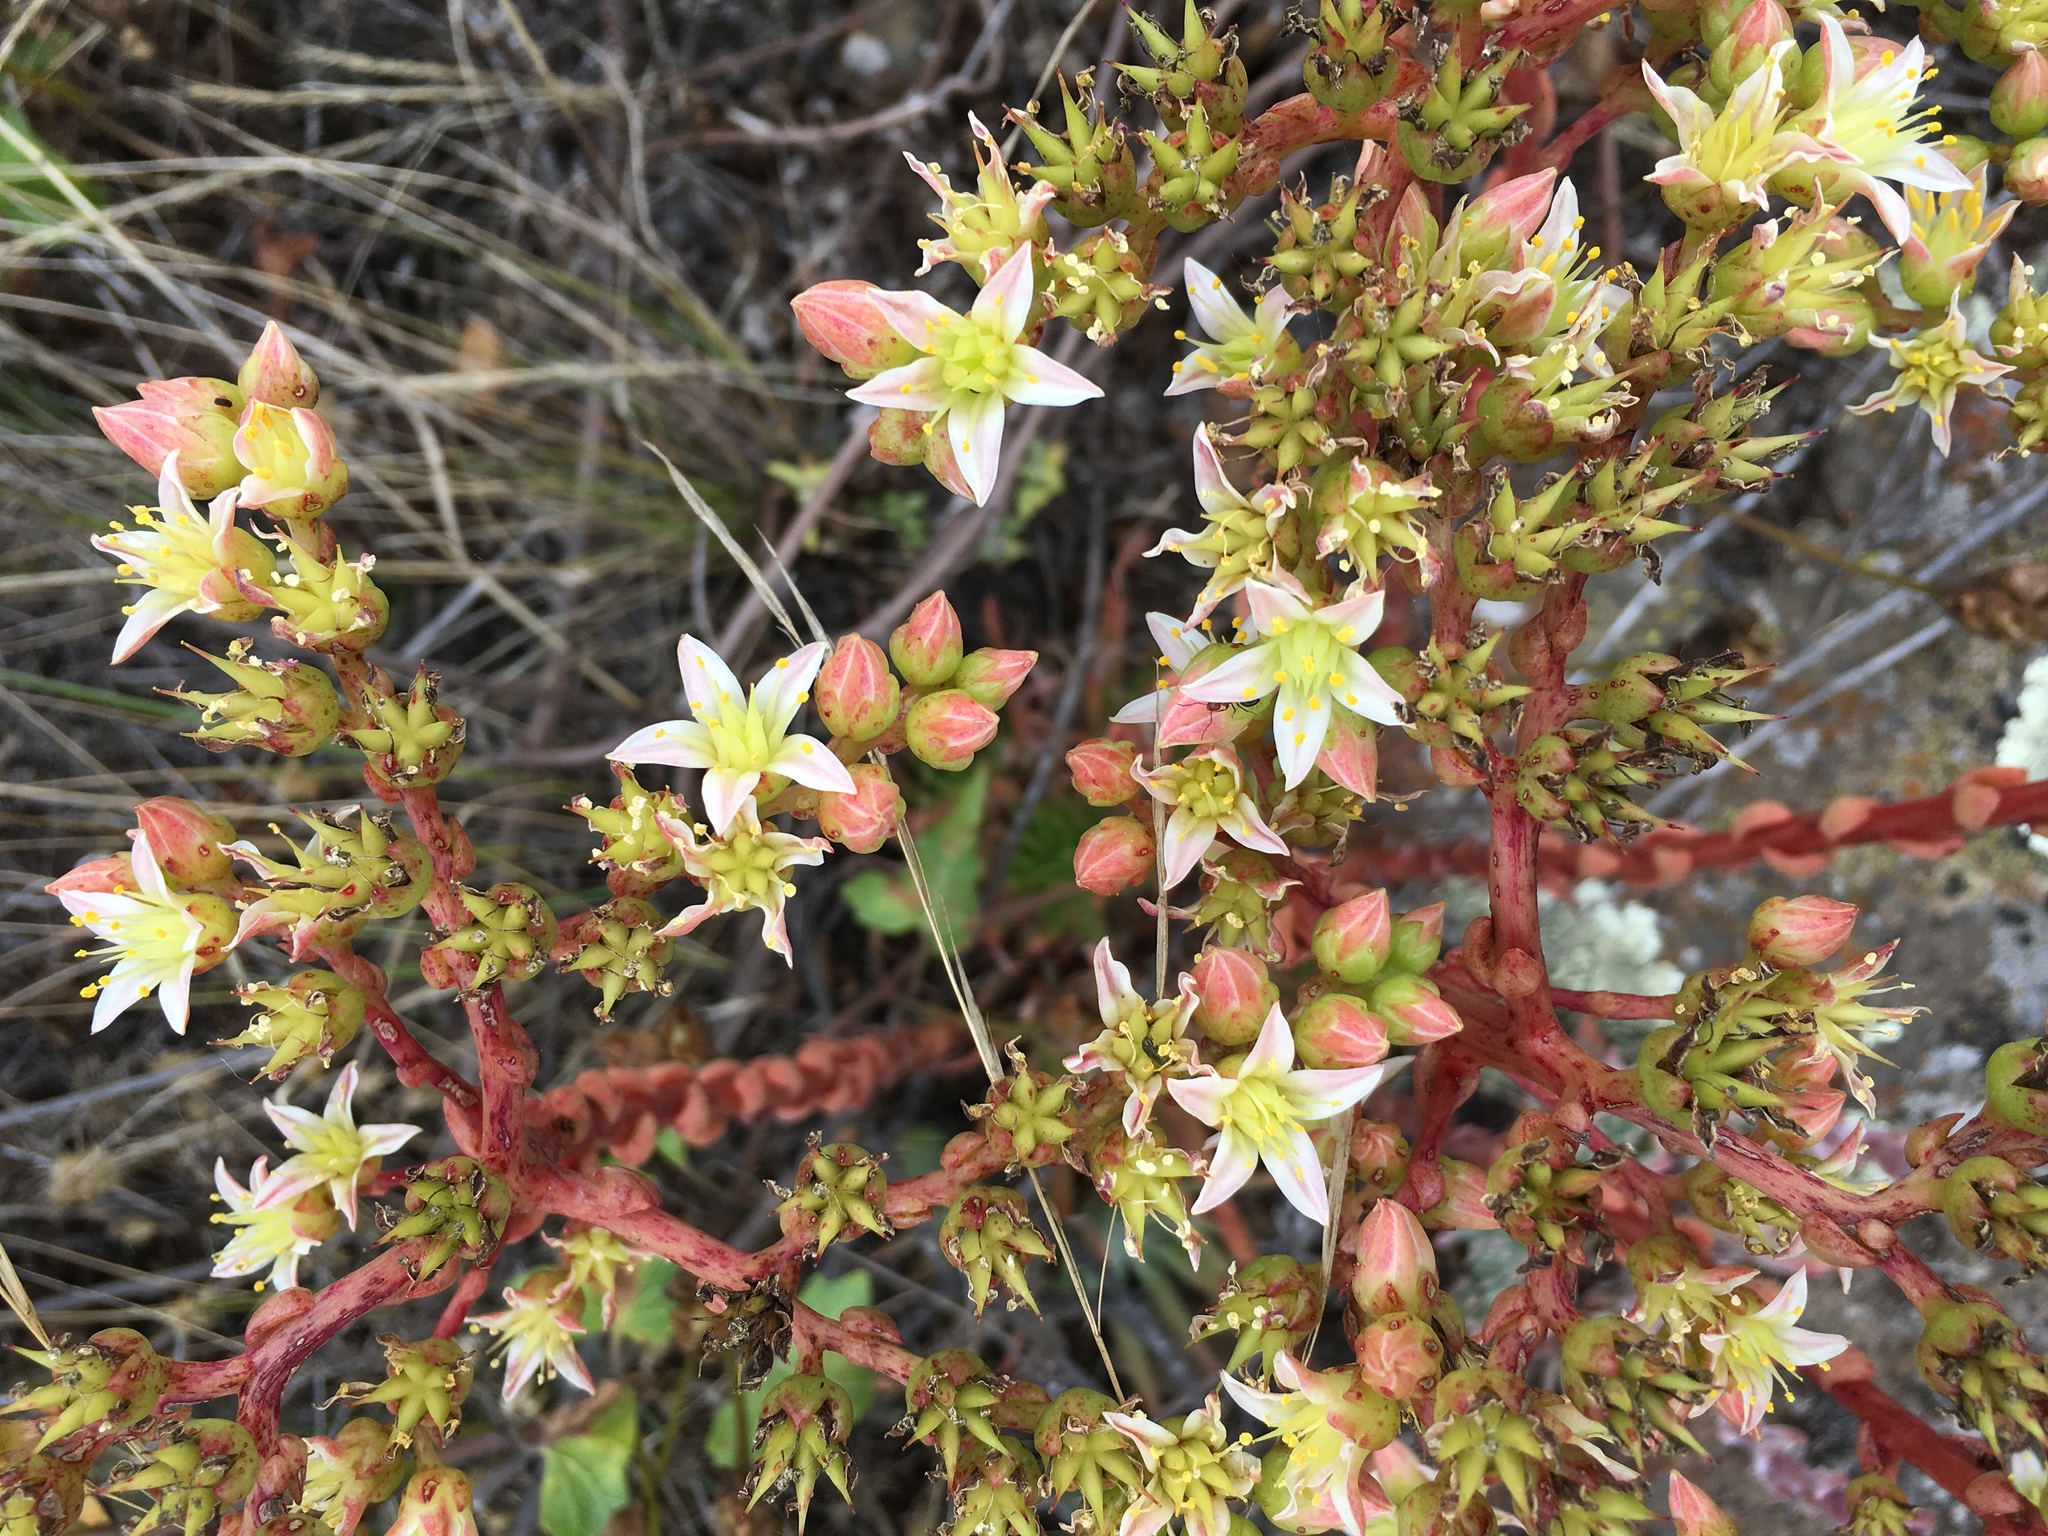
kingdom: Plantae
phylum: Tracheophyta
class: Magnoliopsida
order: Saxifragales
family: Crassulaceae
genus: Dudleya
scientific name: Dudleya virens
